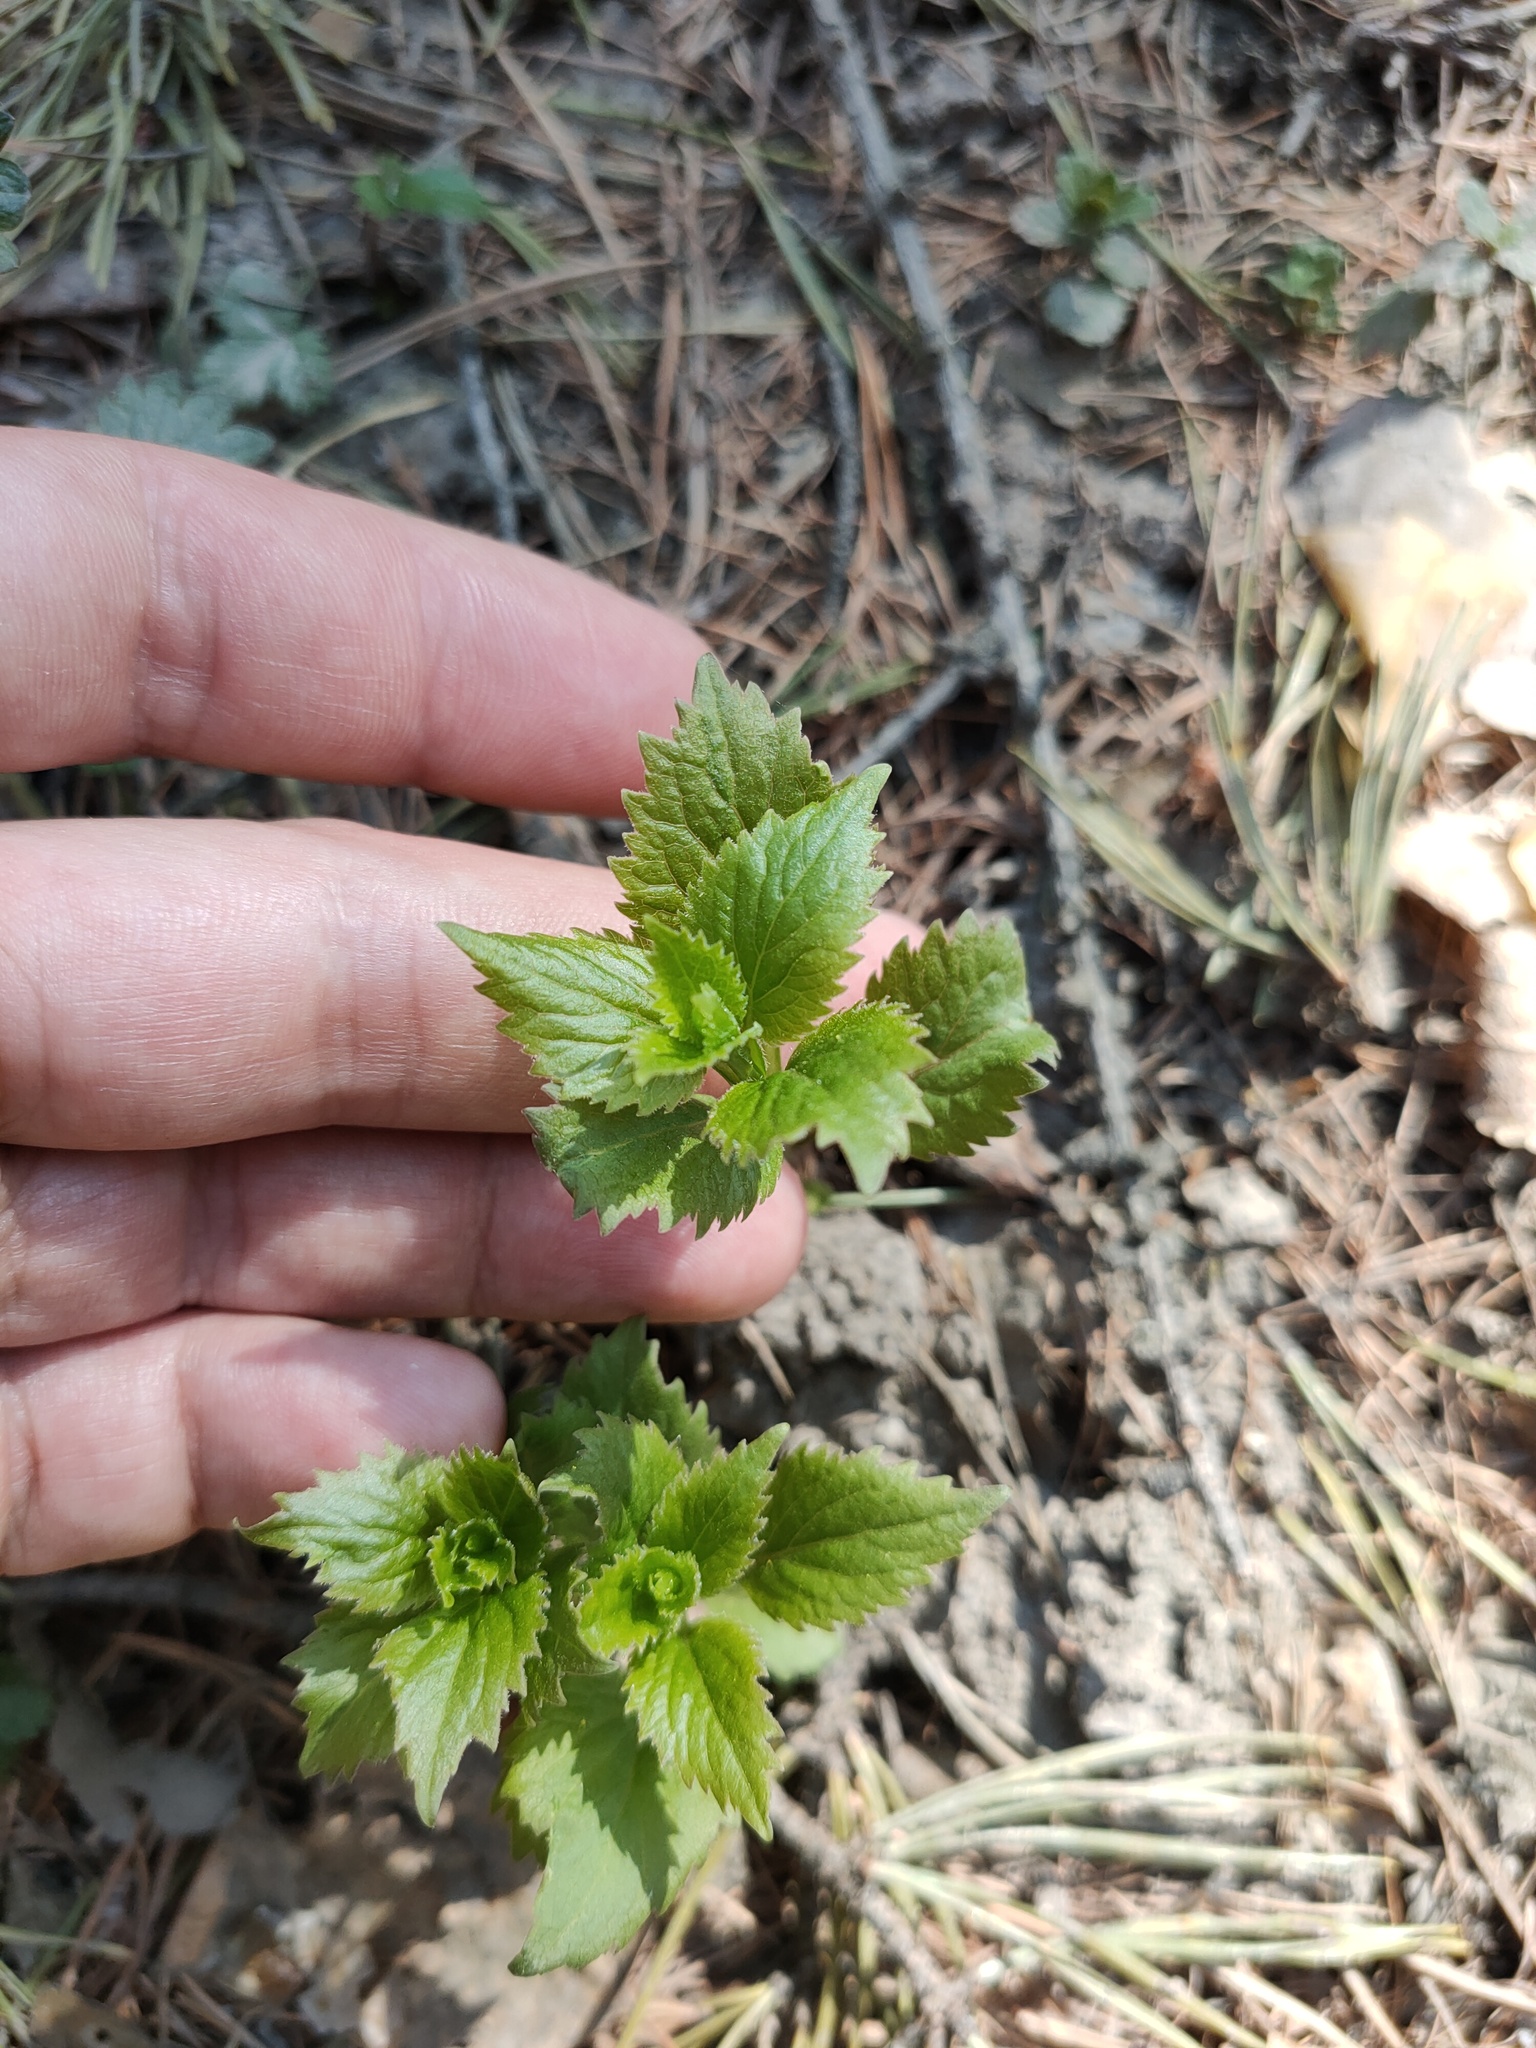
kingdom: Plantae
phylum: Tracheophyta
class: Magnoliopsida
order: Asterales
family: Campanulaceae
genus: Adenophora
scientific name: Adenophora liliifolia
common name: Lilyleaf ladybells
